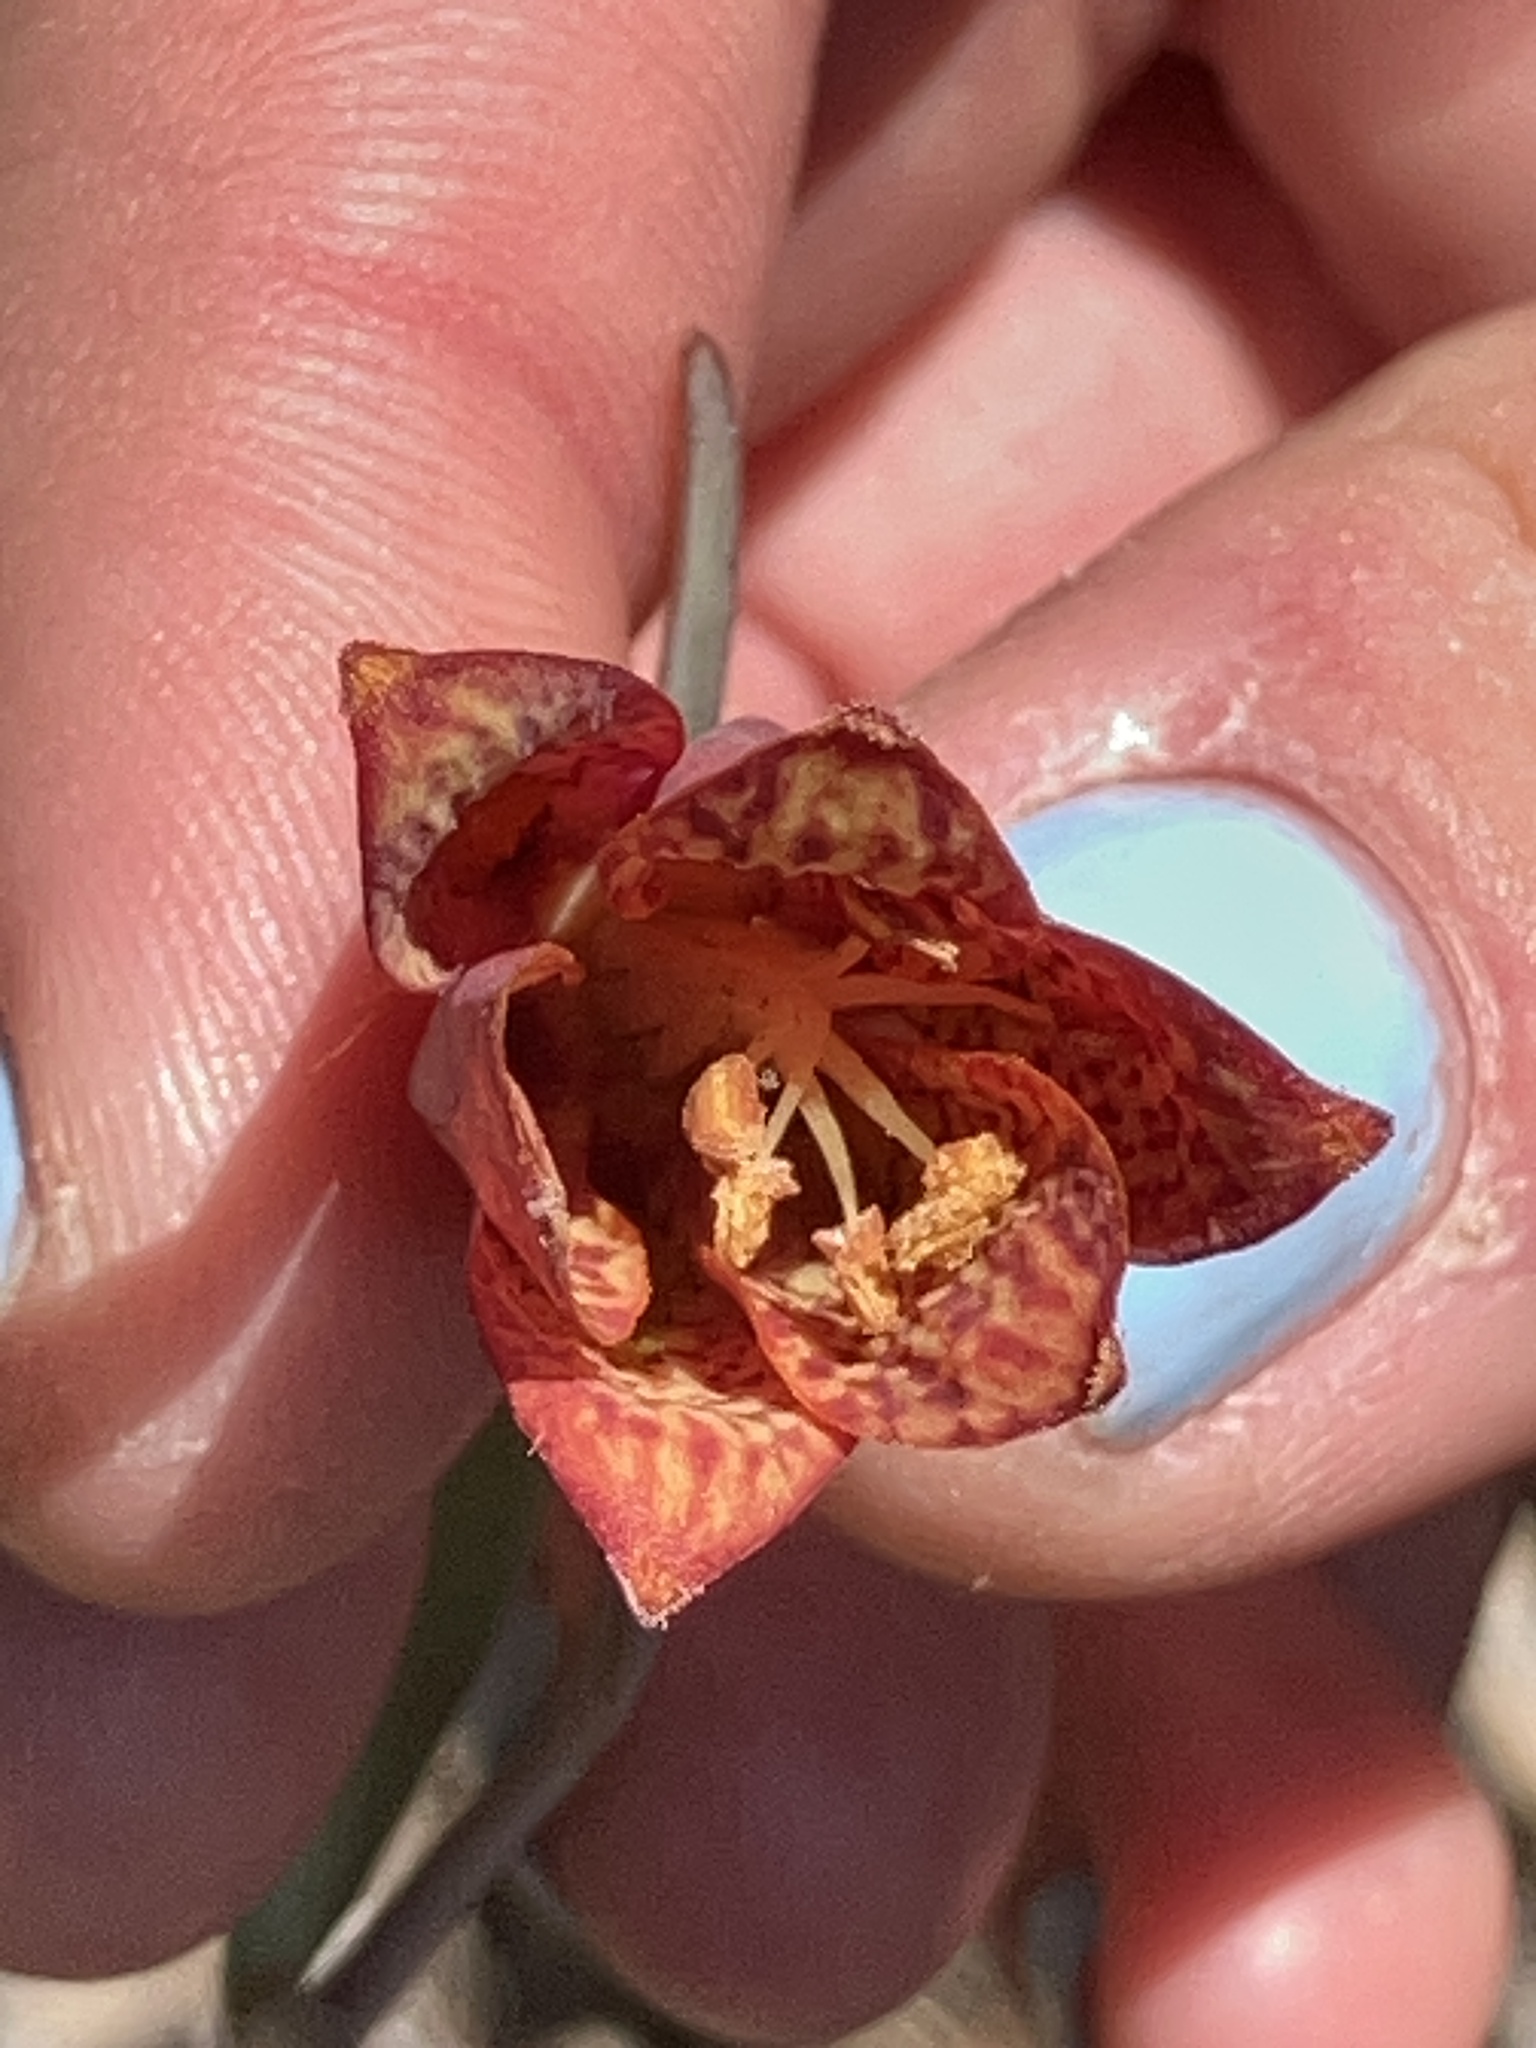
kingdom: Plantae
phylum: Tracheophyta
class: Liliopsida
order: Liliales
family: Liliaceae
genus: Fritillaria
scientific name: Fritillaria gentneri
